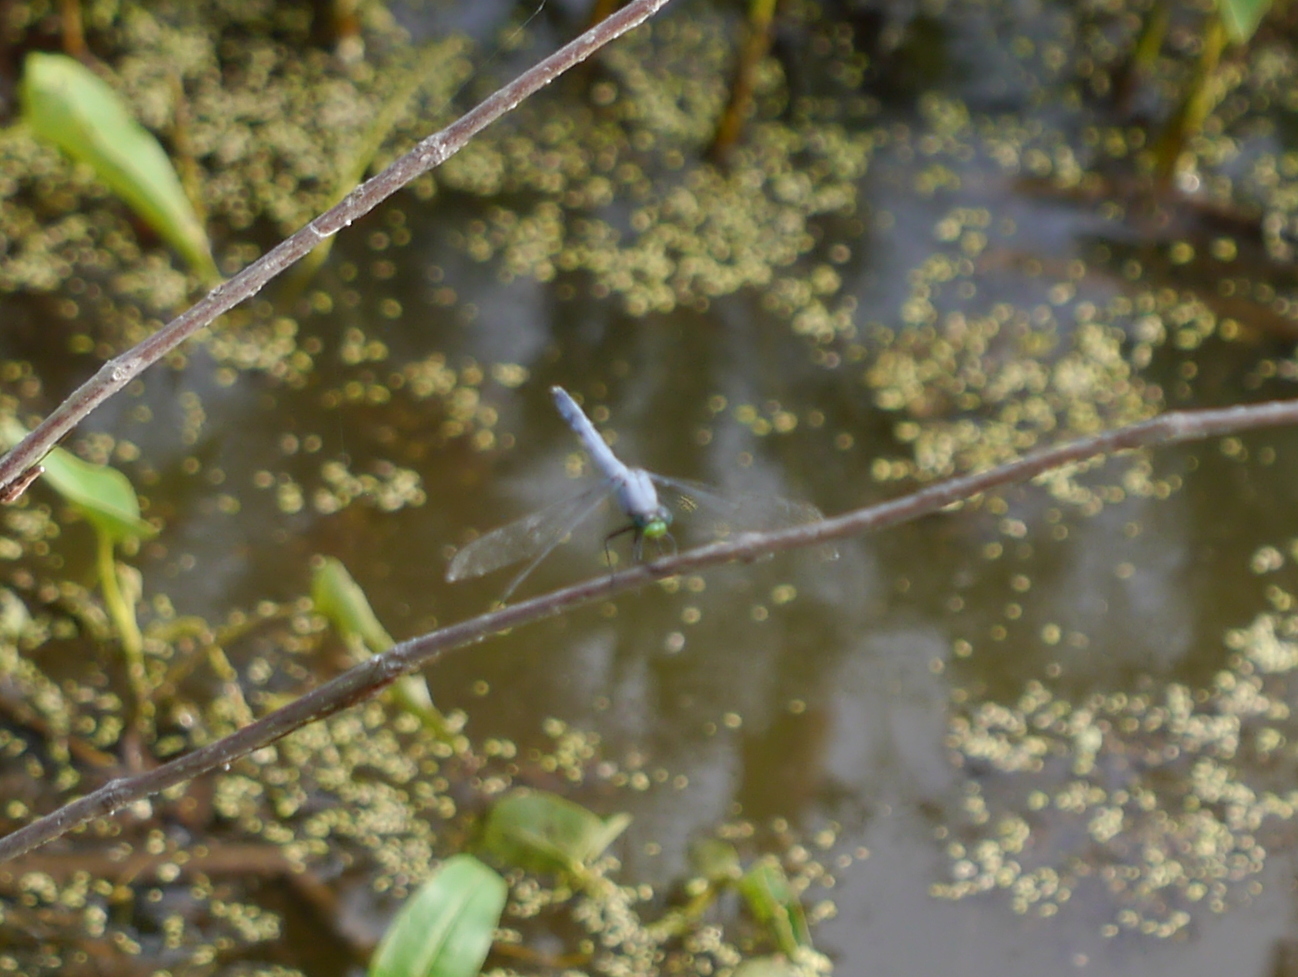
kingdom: Animalia
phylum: Arthropoda
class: Insecta
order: Odonata
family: Libellulidae
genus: Erythemis
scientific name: Erythemis simplicicollis
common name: Eastern pondhawk
